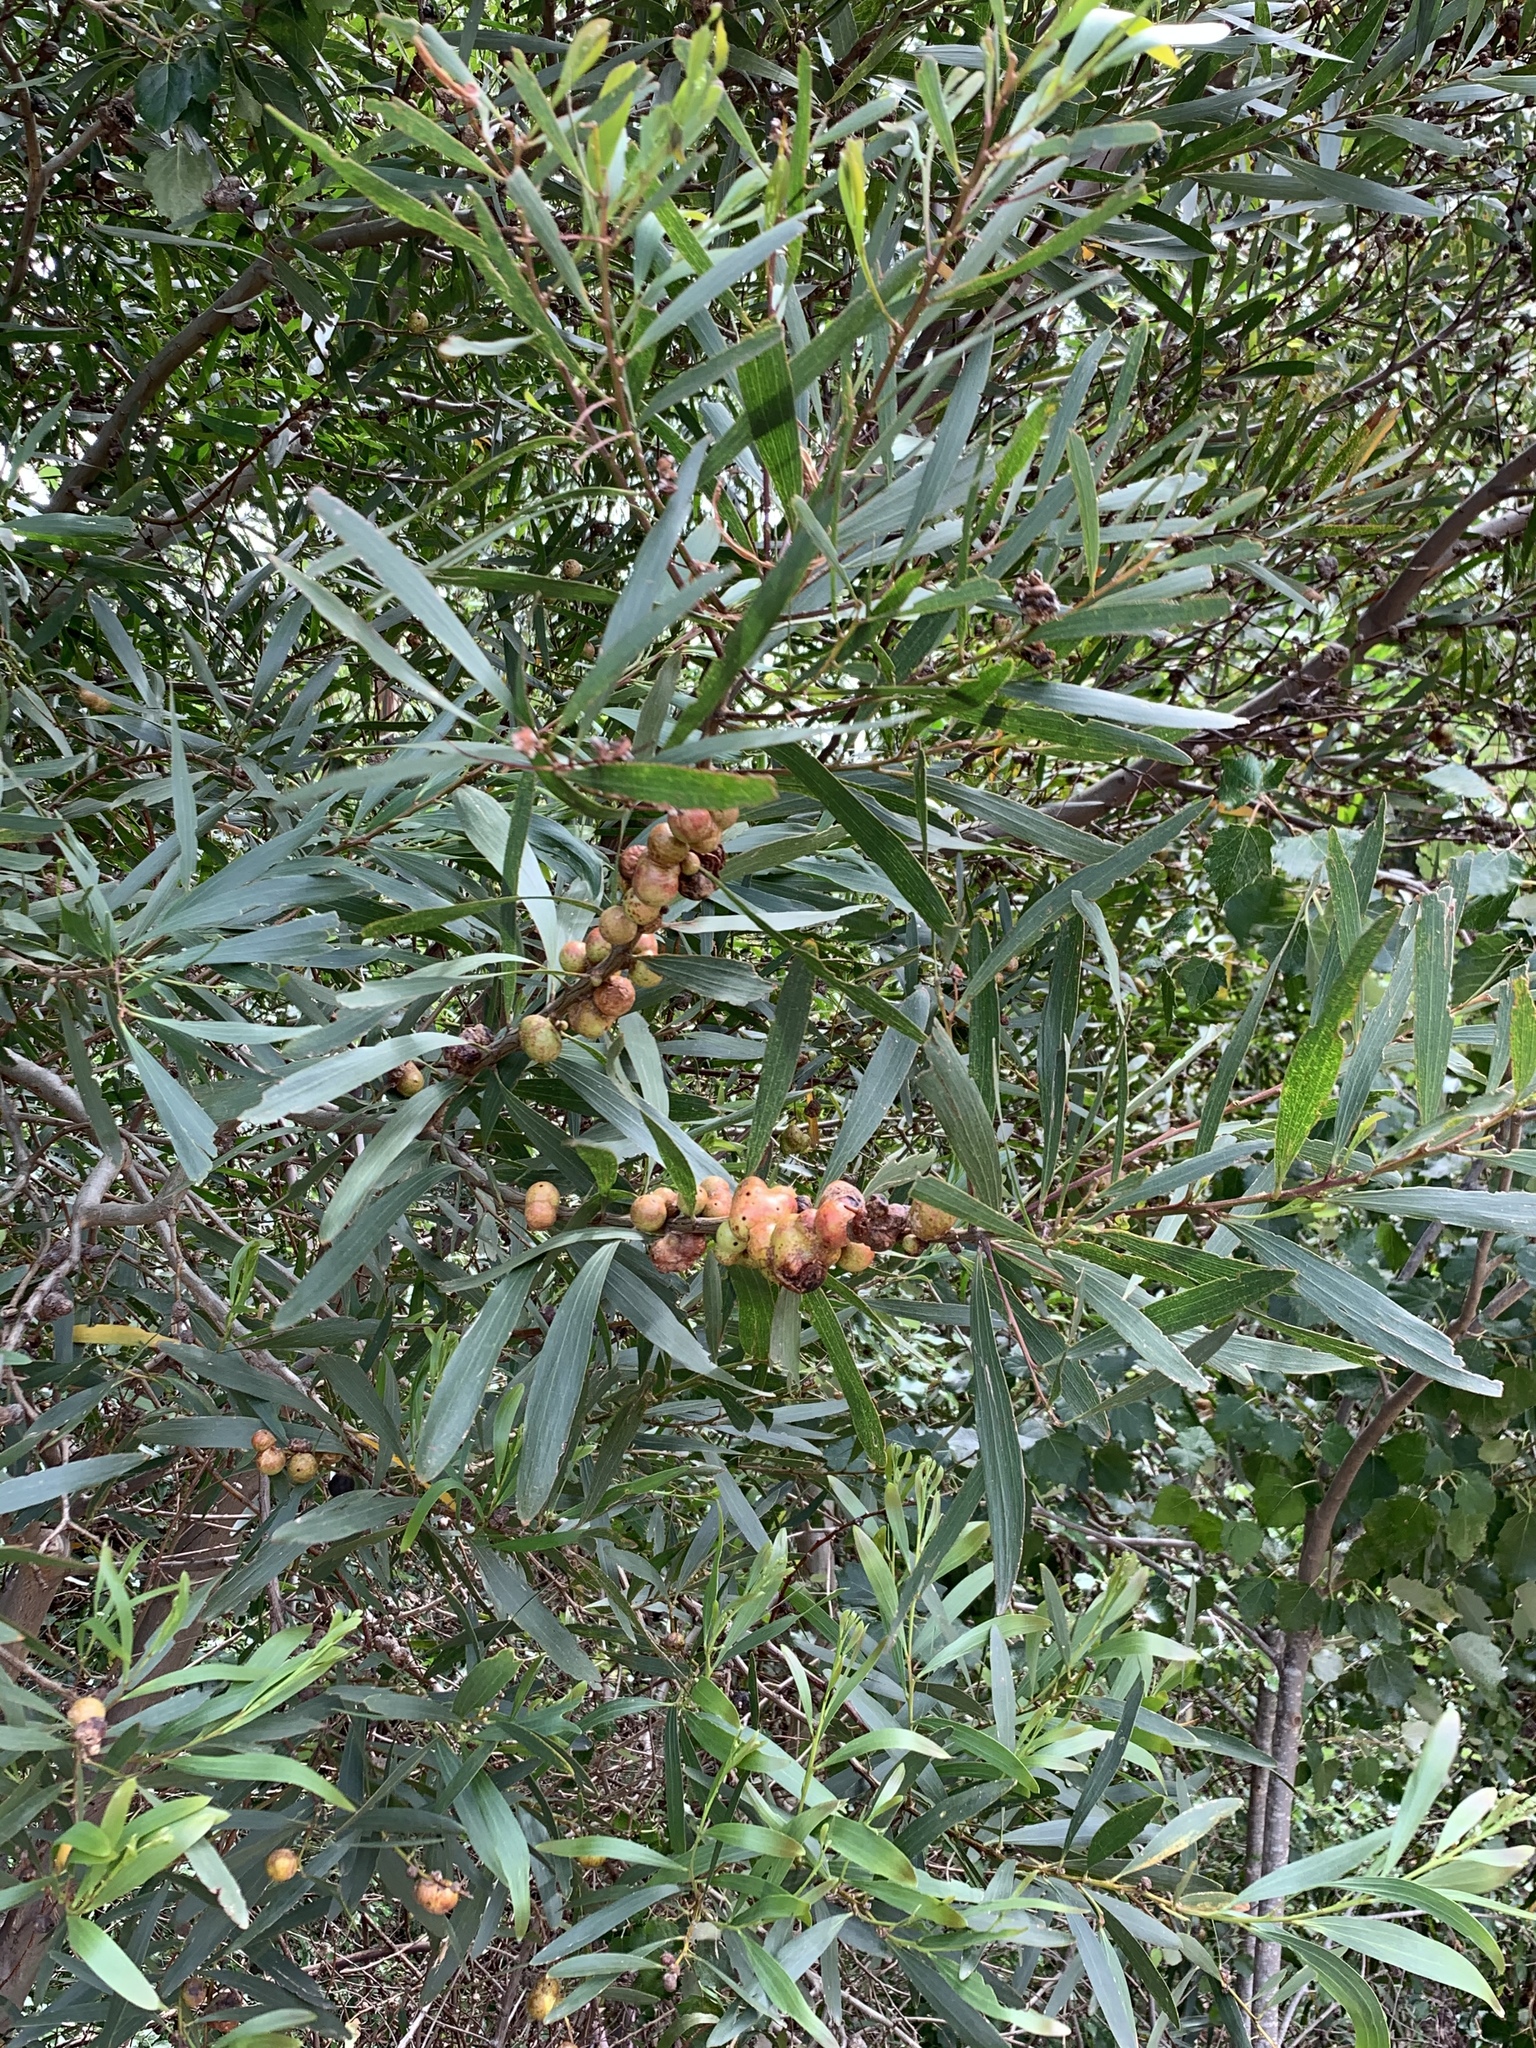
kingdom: Plantae
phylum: Tracheophyta
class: Magnoliopsida
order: Fabales
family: Fabaceae
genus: Acacia
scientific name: Acacia longifolia
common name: Sydney golden wattle
